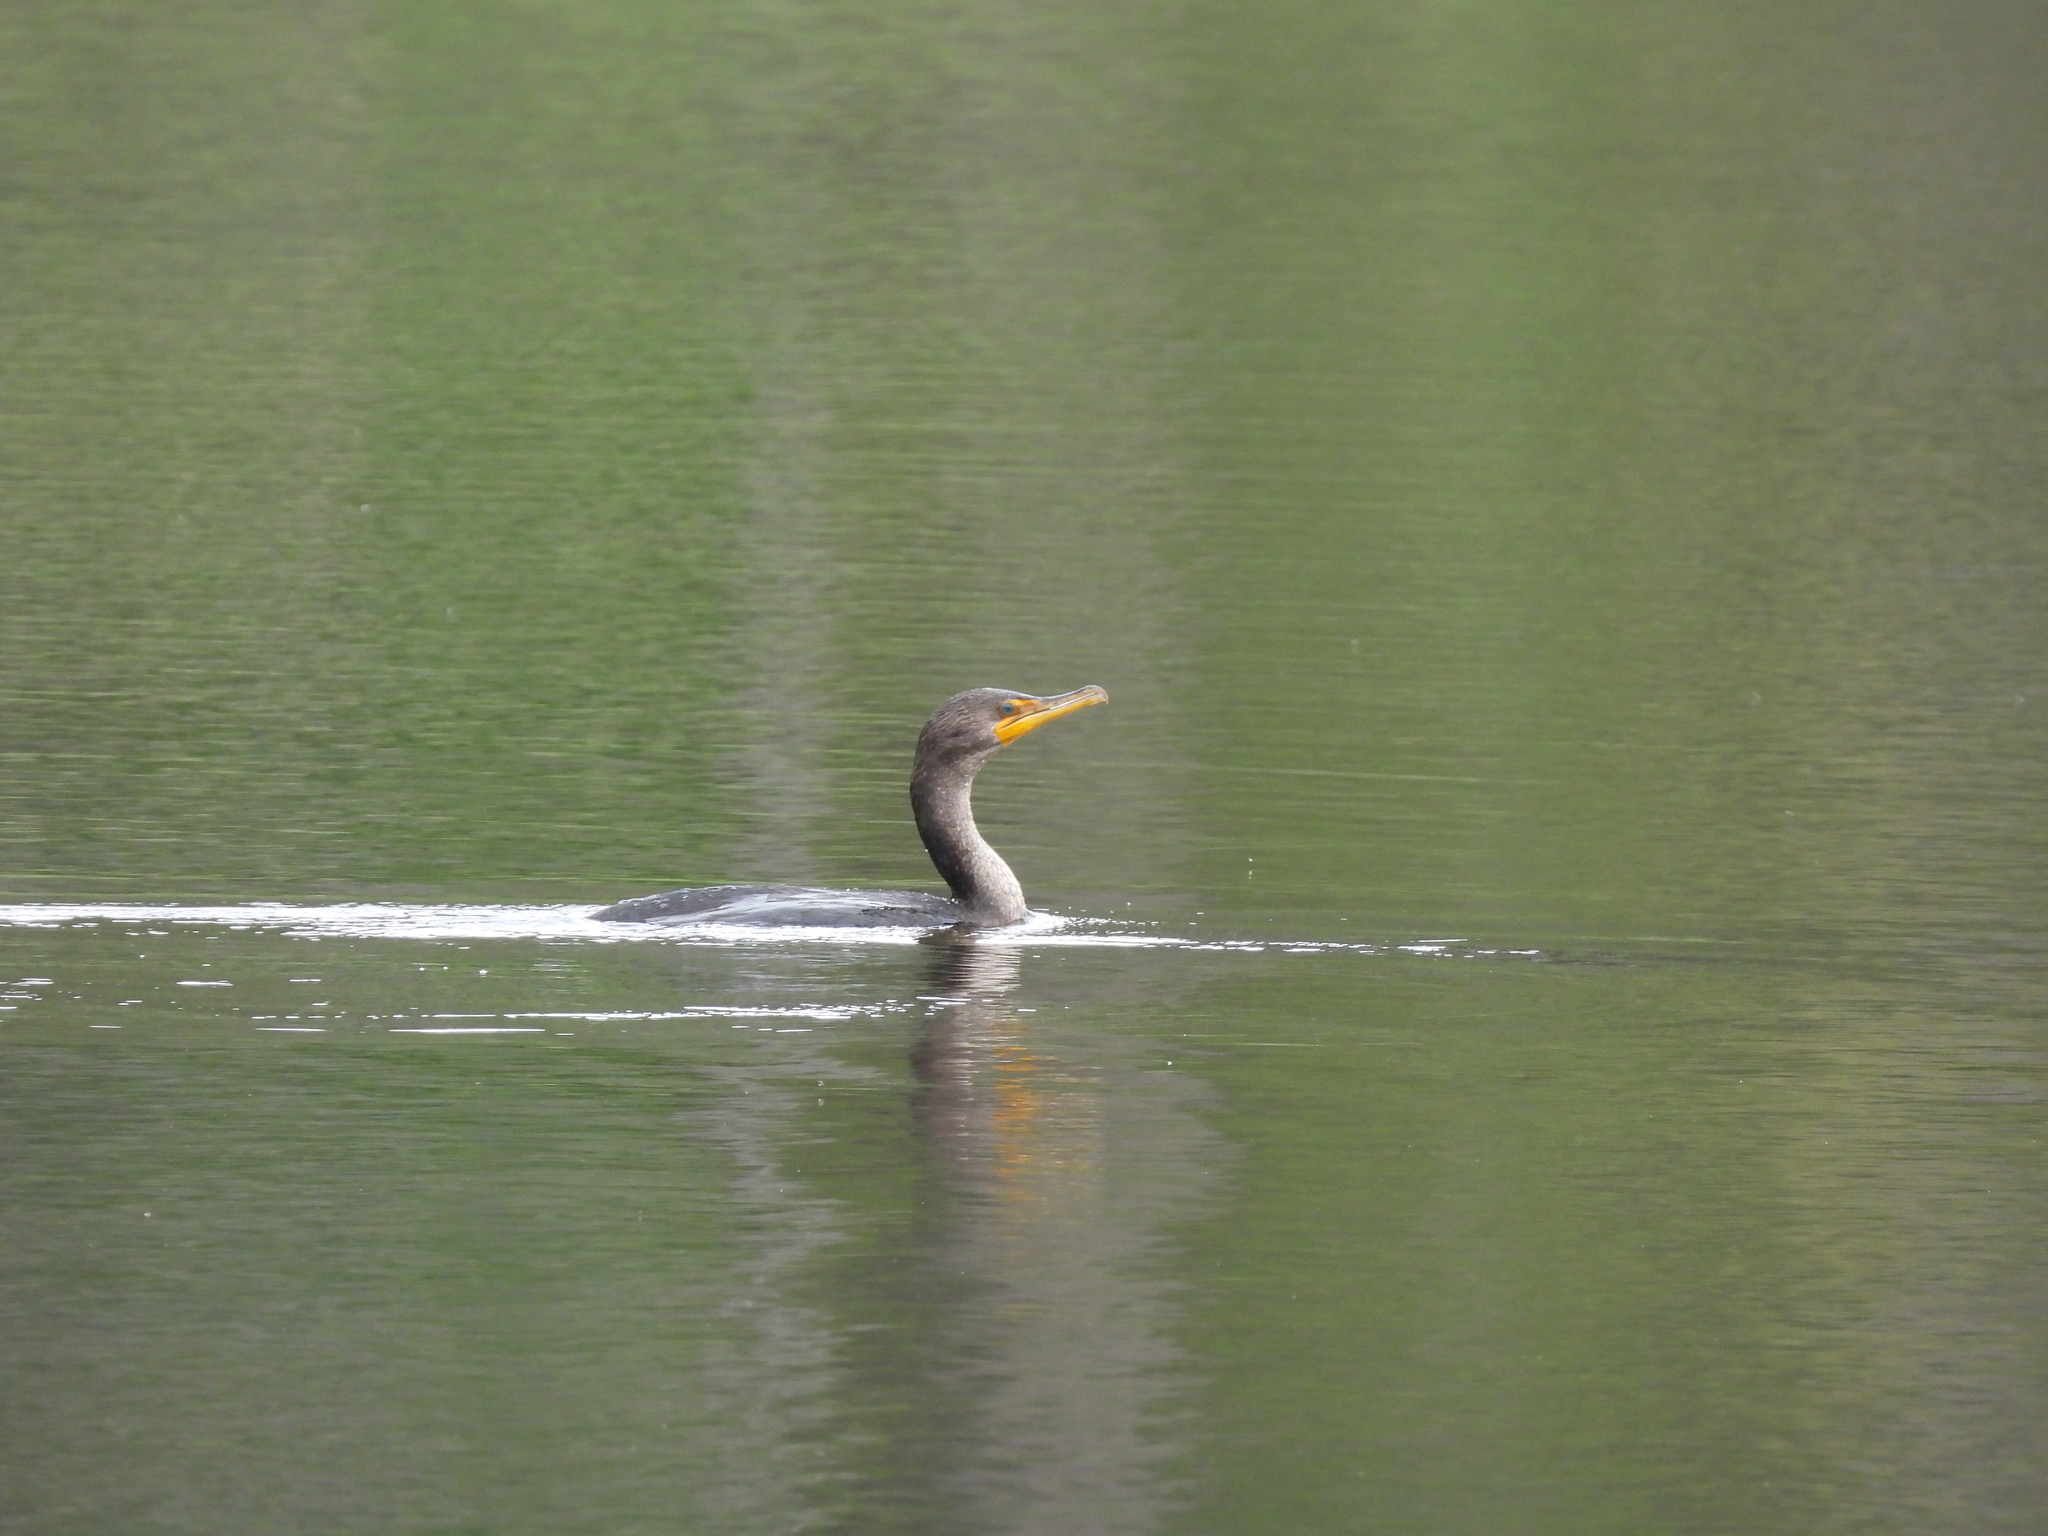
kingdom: Animalia
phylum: Chordata
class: Aves
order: Suliformes
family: Phalacrocoracidae
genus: Phalacrocorax
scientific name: Phalacrocorax auritus
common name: Double-crested cormorant
